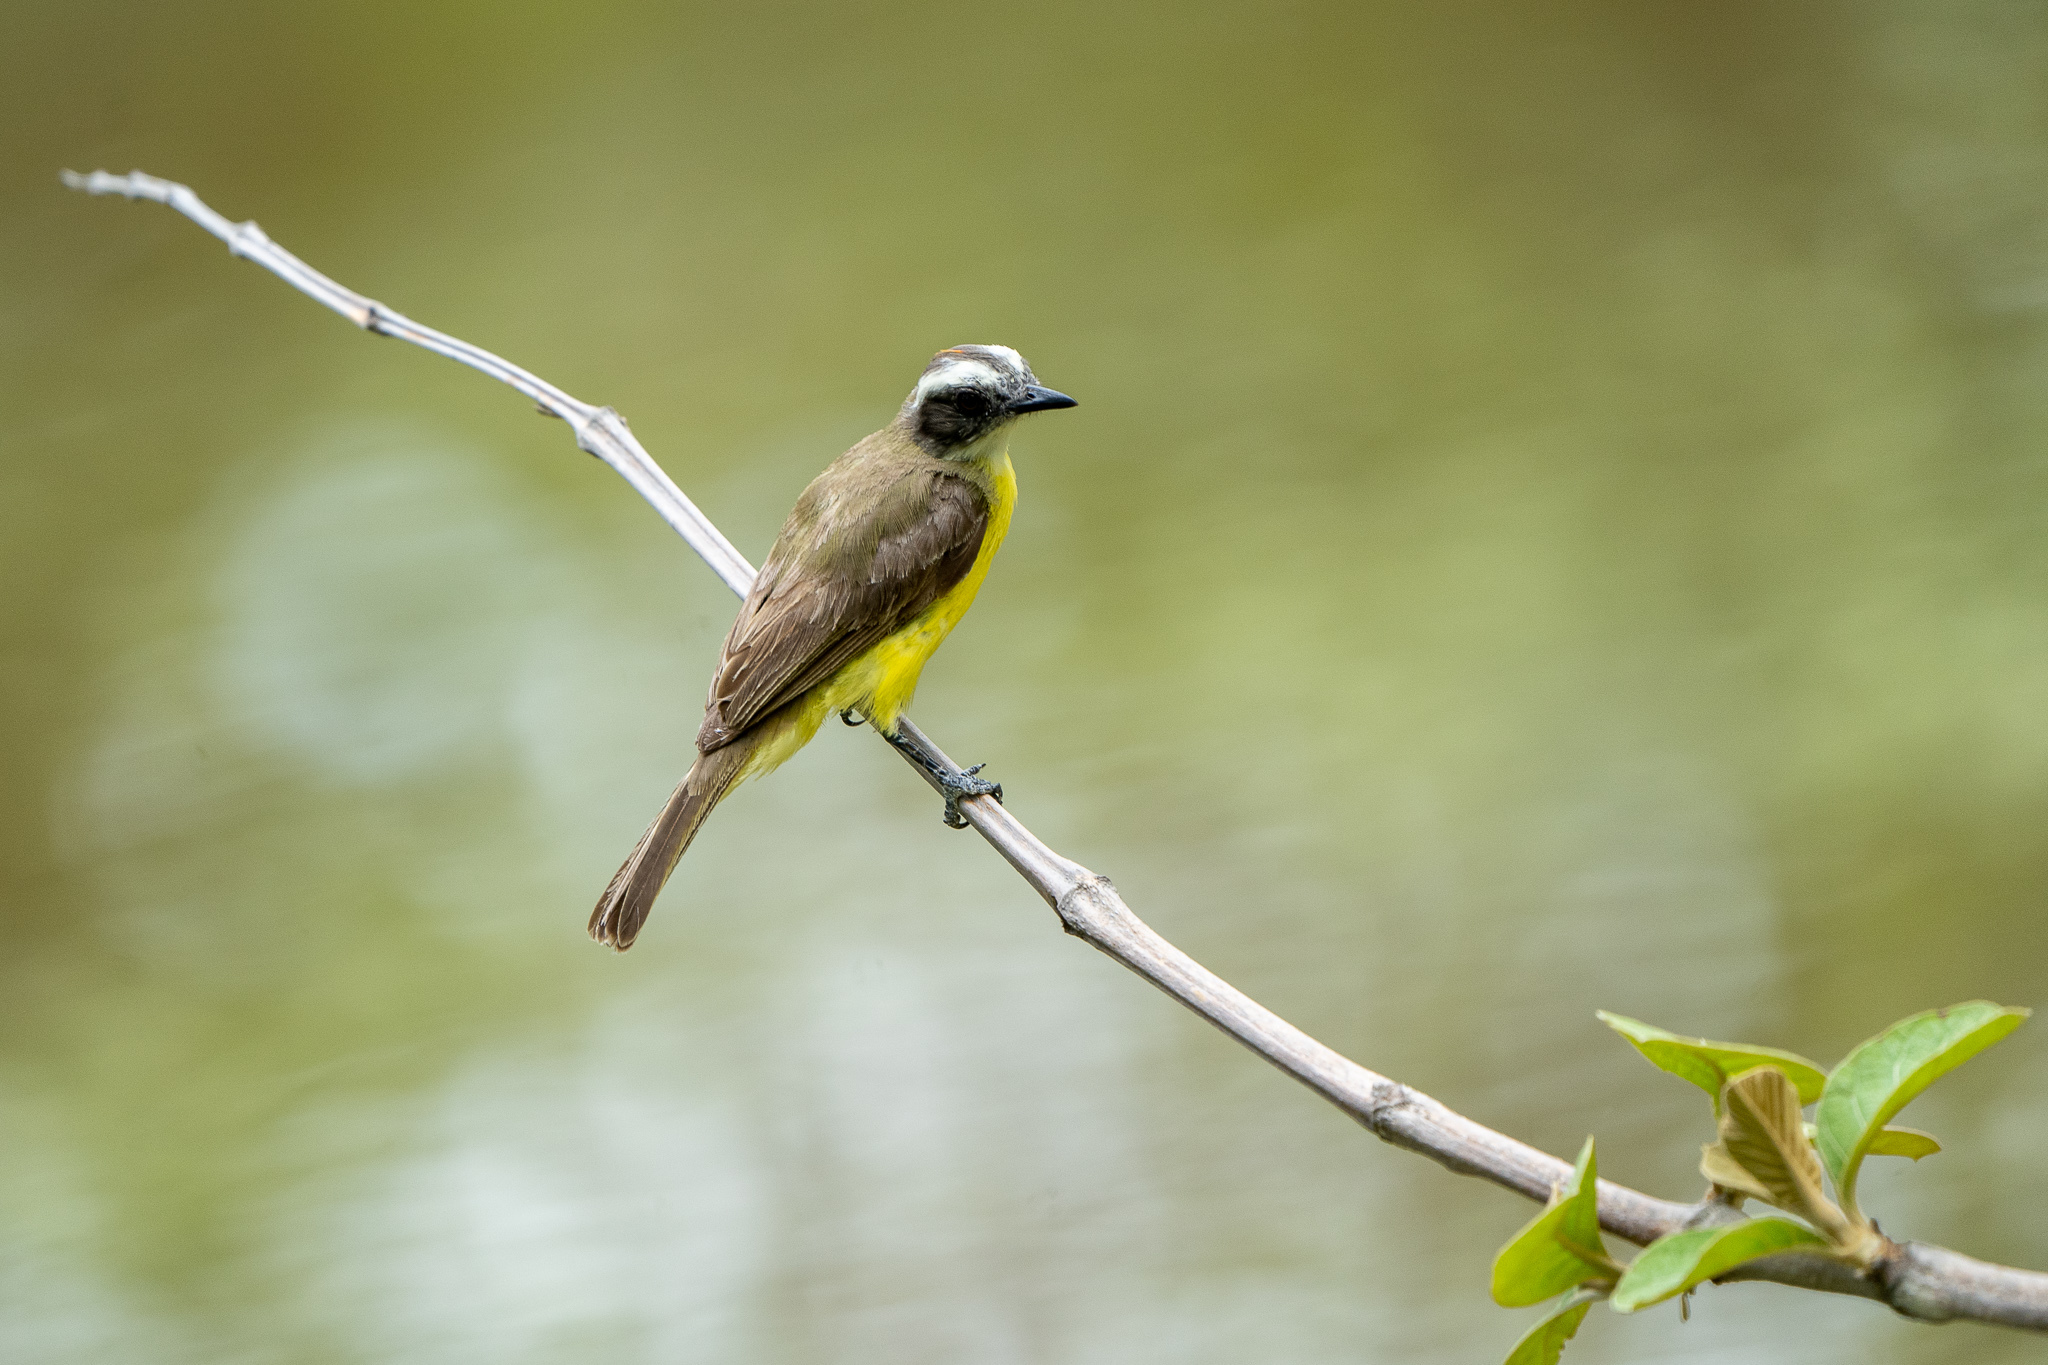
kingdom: Animalia
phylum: Chordata
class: Aves
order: Passeriformes
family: Tyrannidae
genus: Myiozetetes
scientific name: Myiozetetes similis
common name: Social flycatcher
